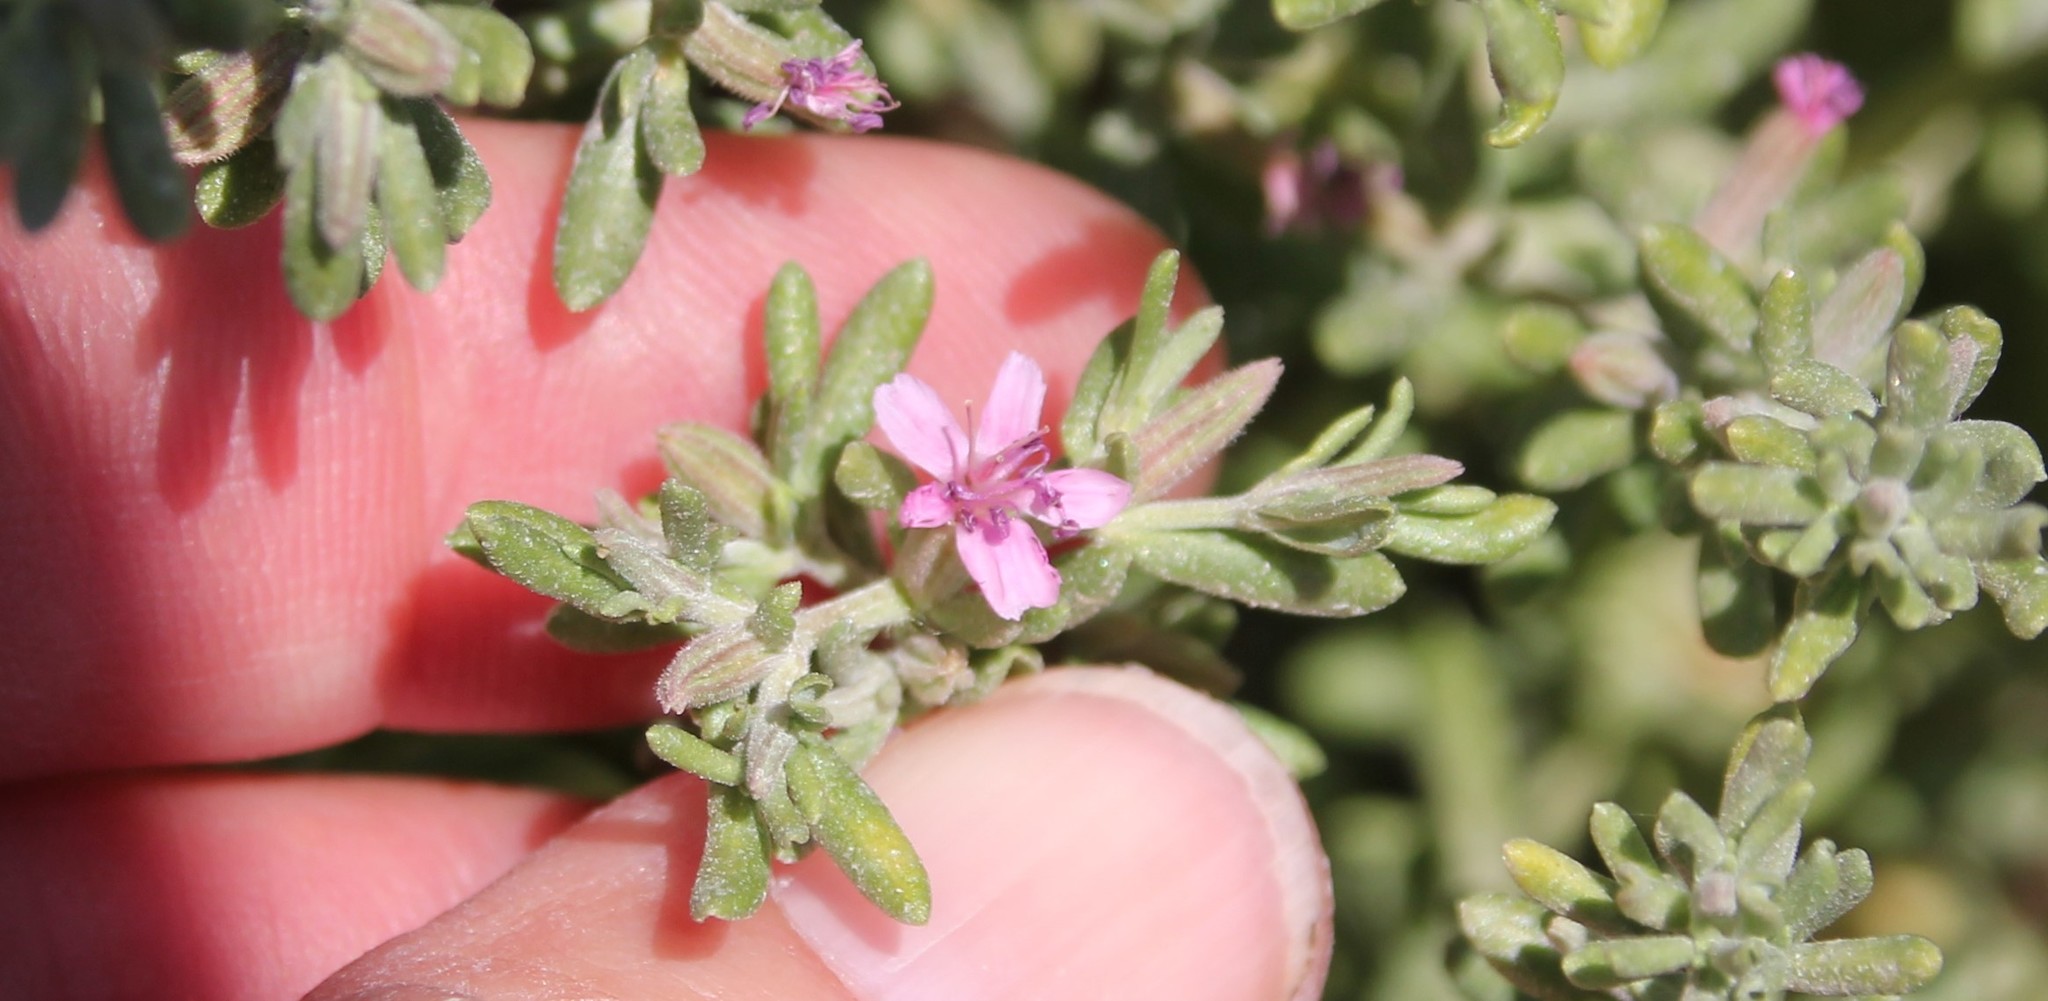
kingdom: Plantae
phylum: Tracheophyta
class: Magnoliopsida
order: Caryophyllales
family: Frankeniaceae
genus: Frankenia
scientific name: Frankenia salina
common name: Alkali seaheath
